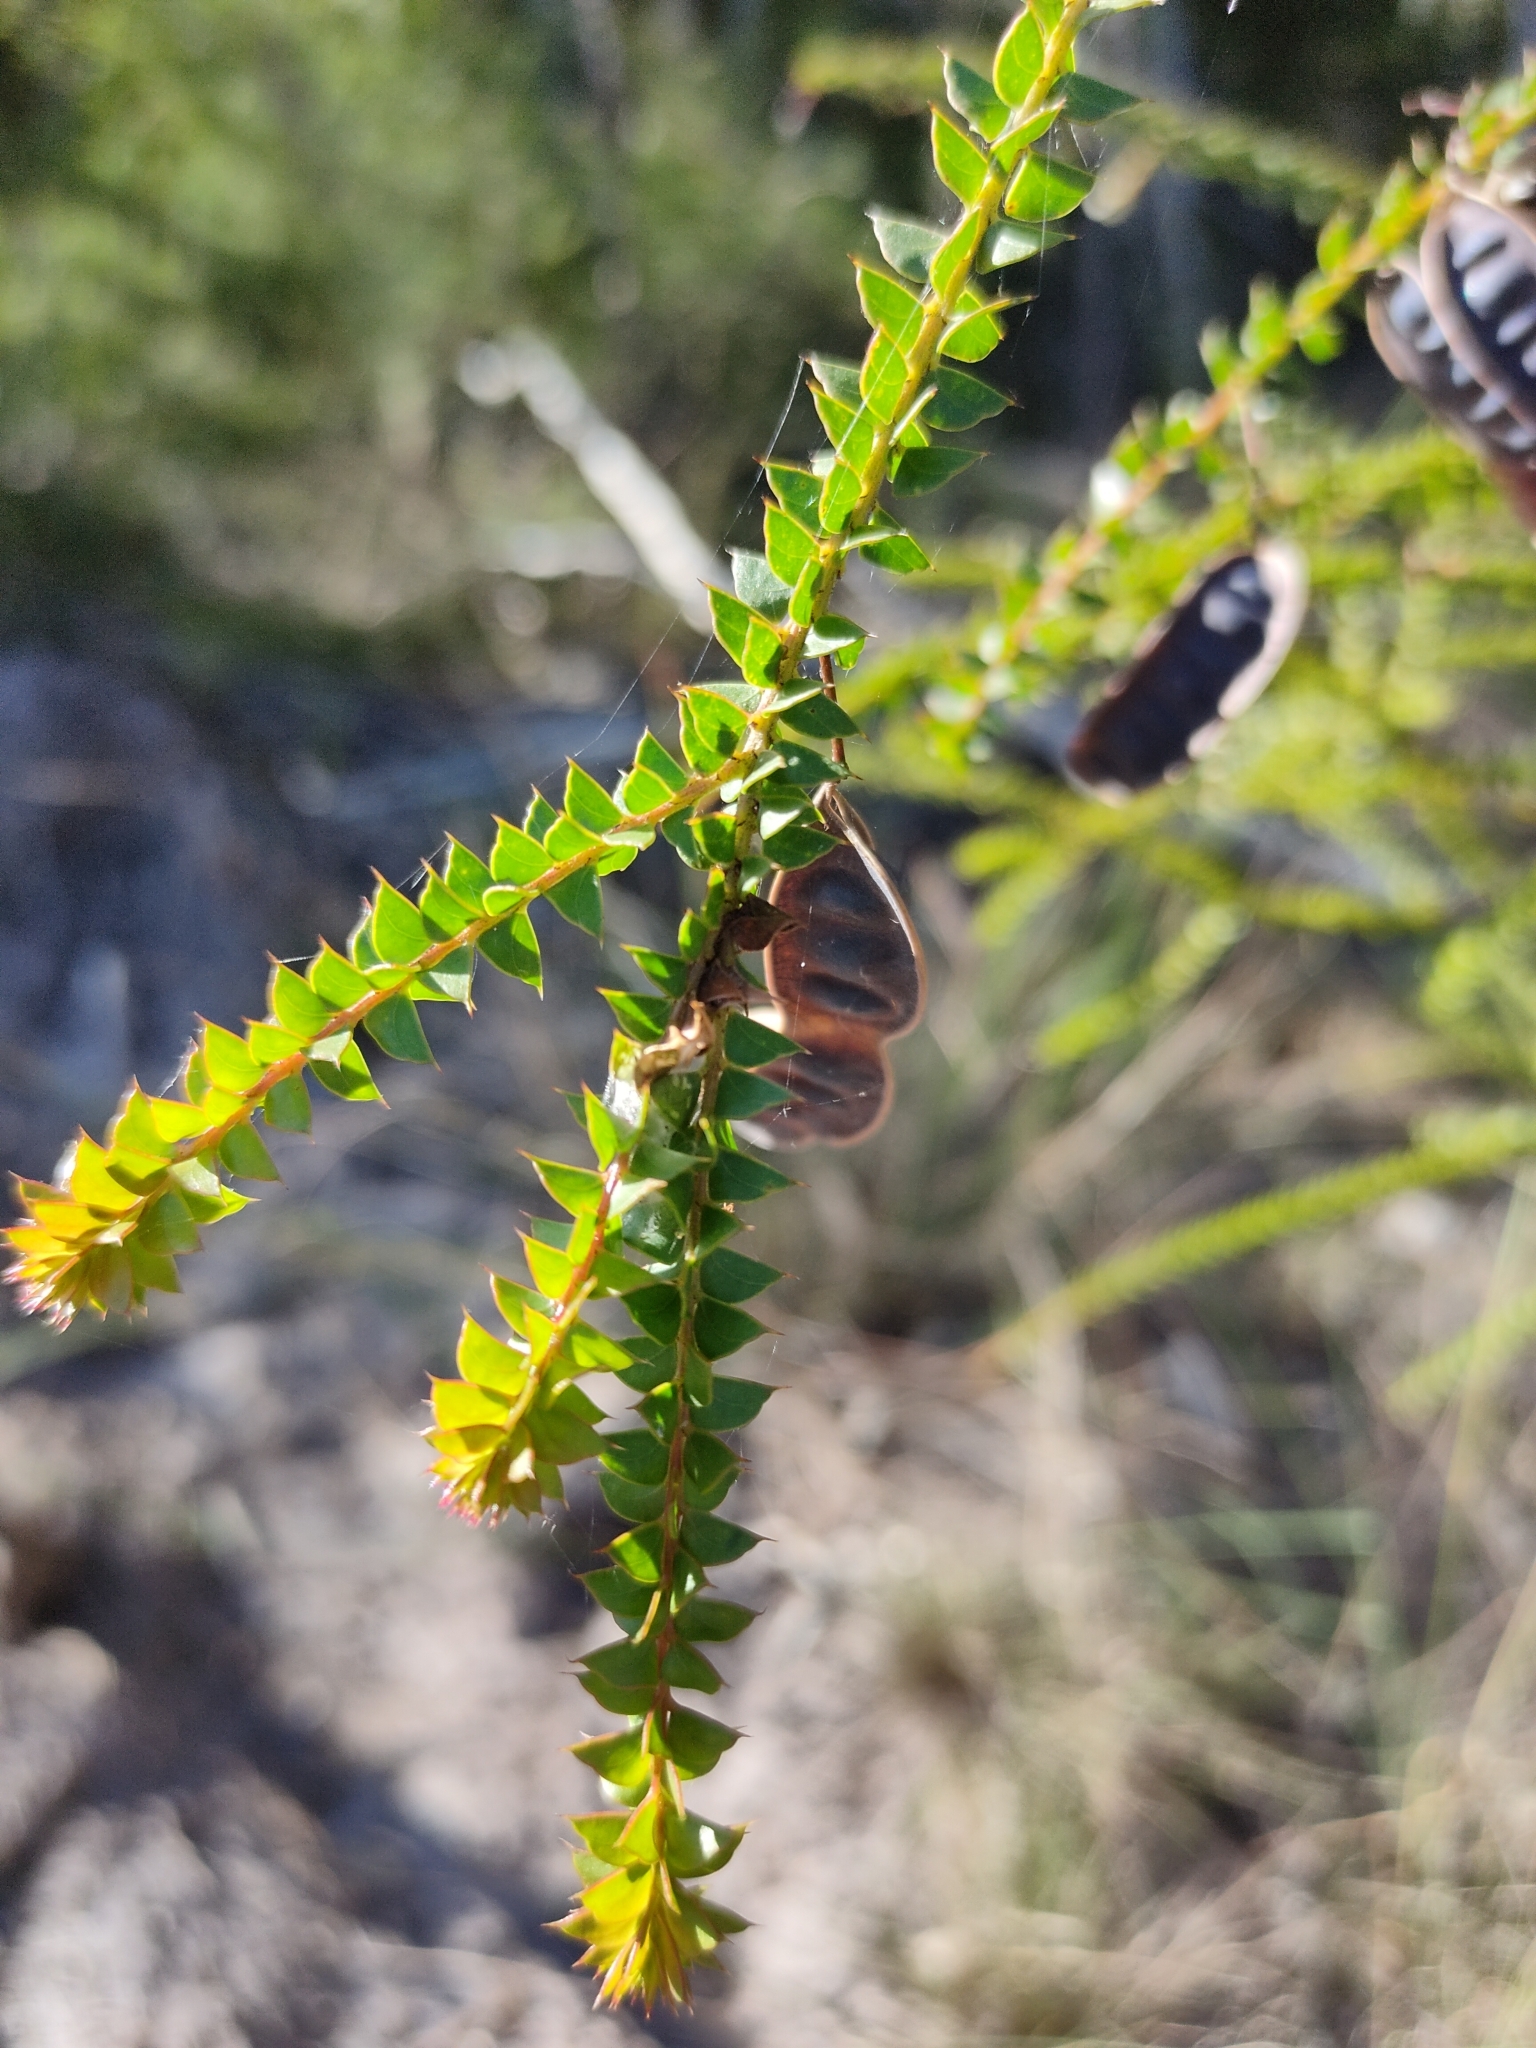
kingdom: Plantae
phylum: Tracheophyta
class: Magnoliopsida
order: Fabales
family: Fabaceae
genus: Acacia
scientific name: Acacia hubbardiana
